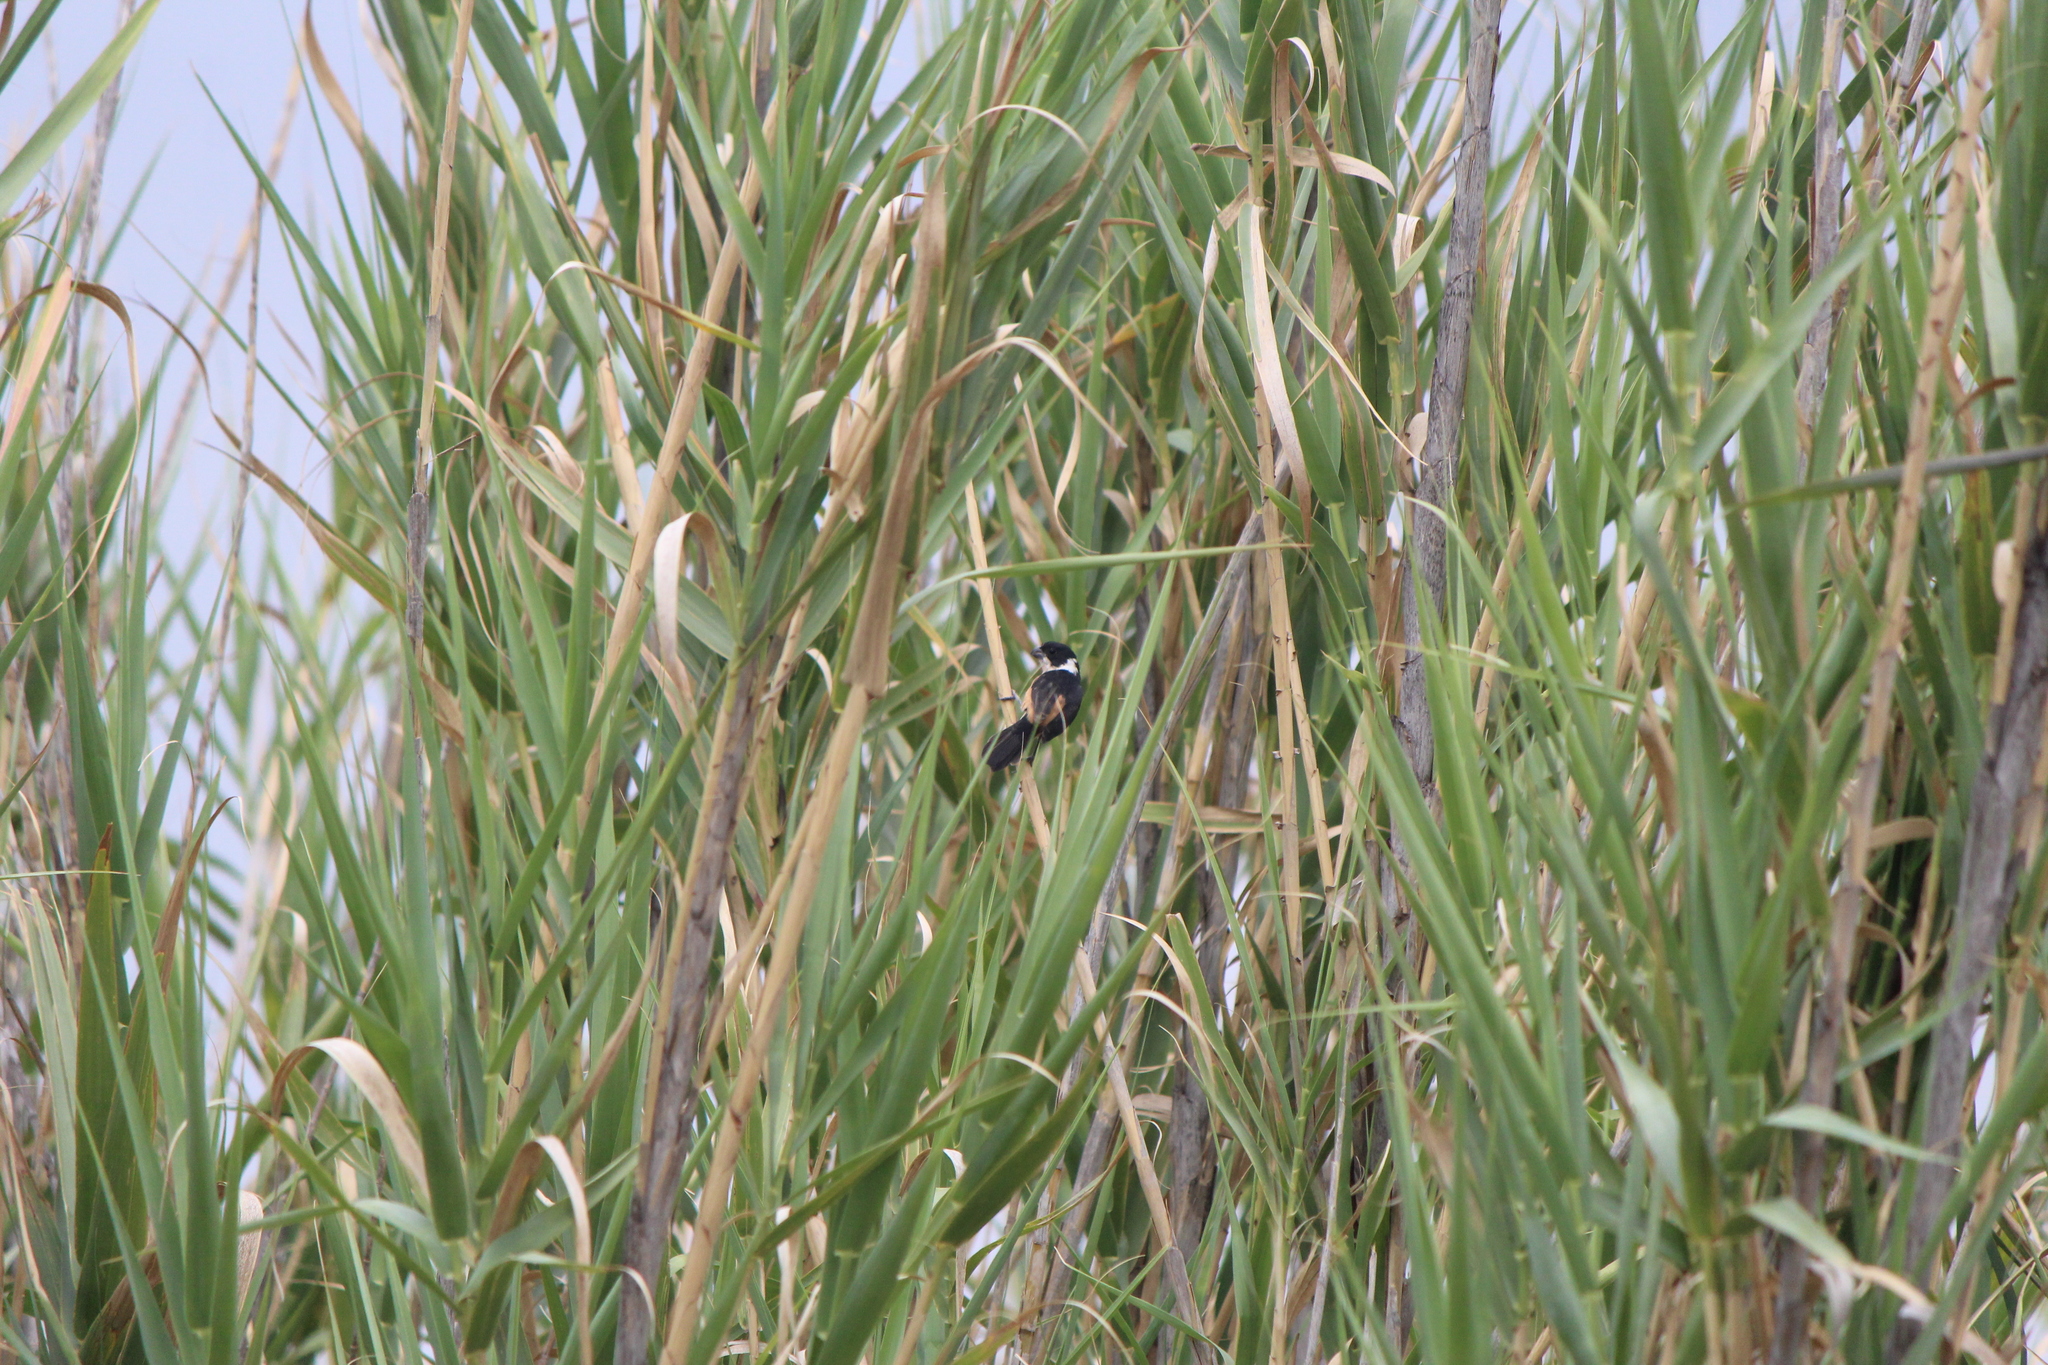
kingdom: Animalia
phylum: Chordata
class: Aves
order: Passeriformes
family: Thraupidae
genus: Sporophila
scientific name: Sporophila torqueola
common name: White-collared seedeater
